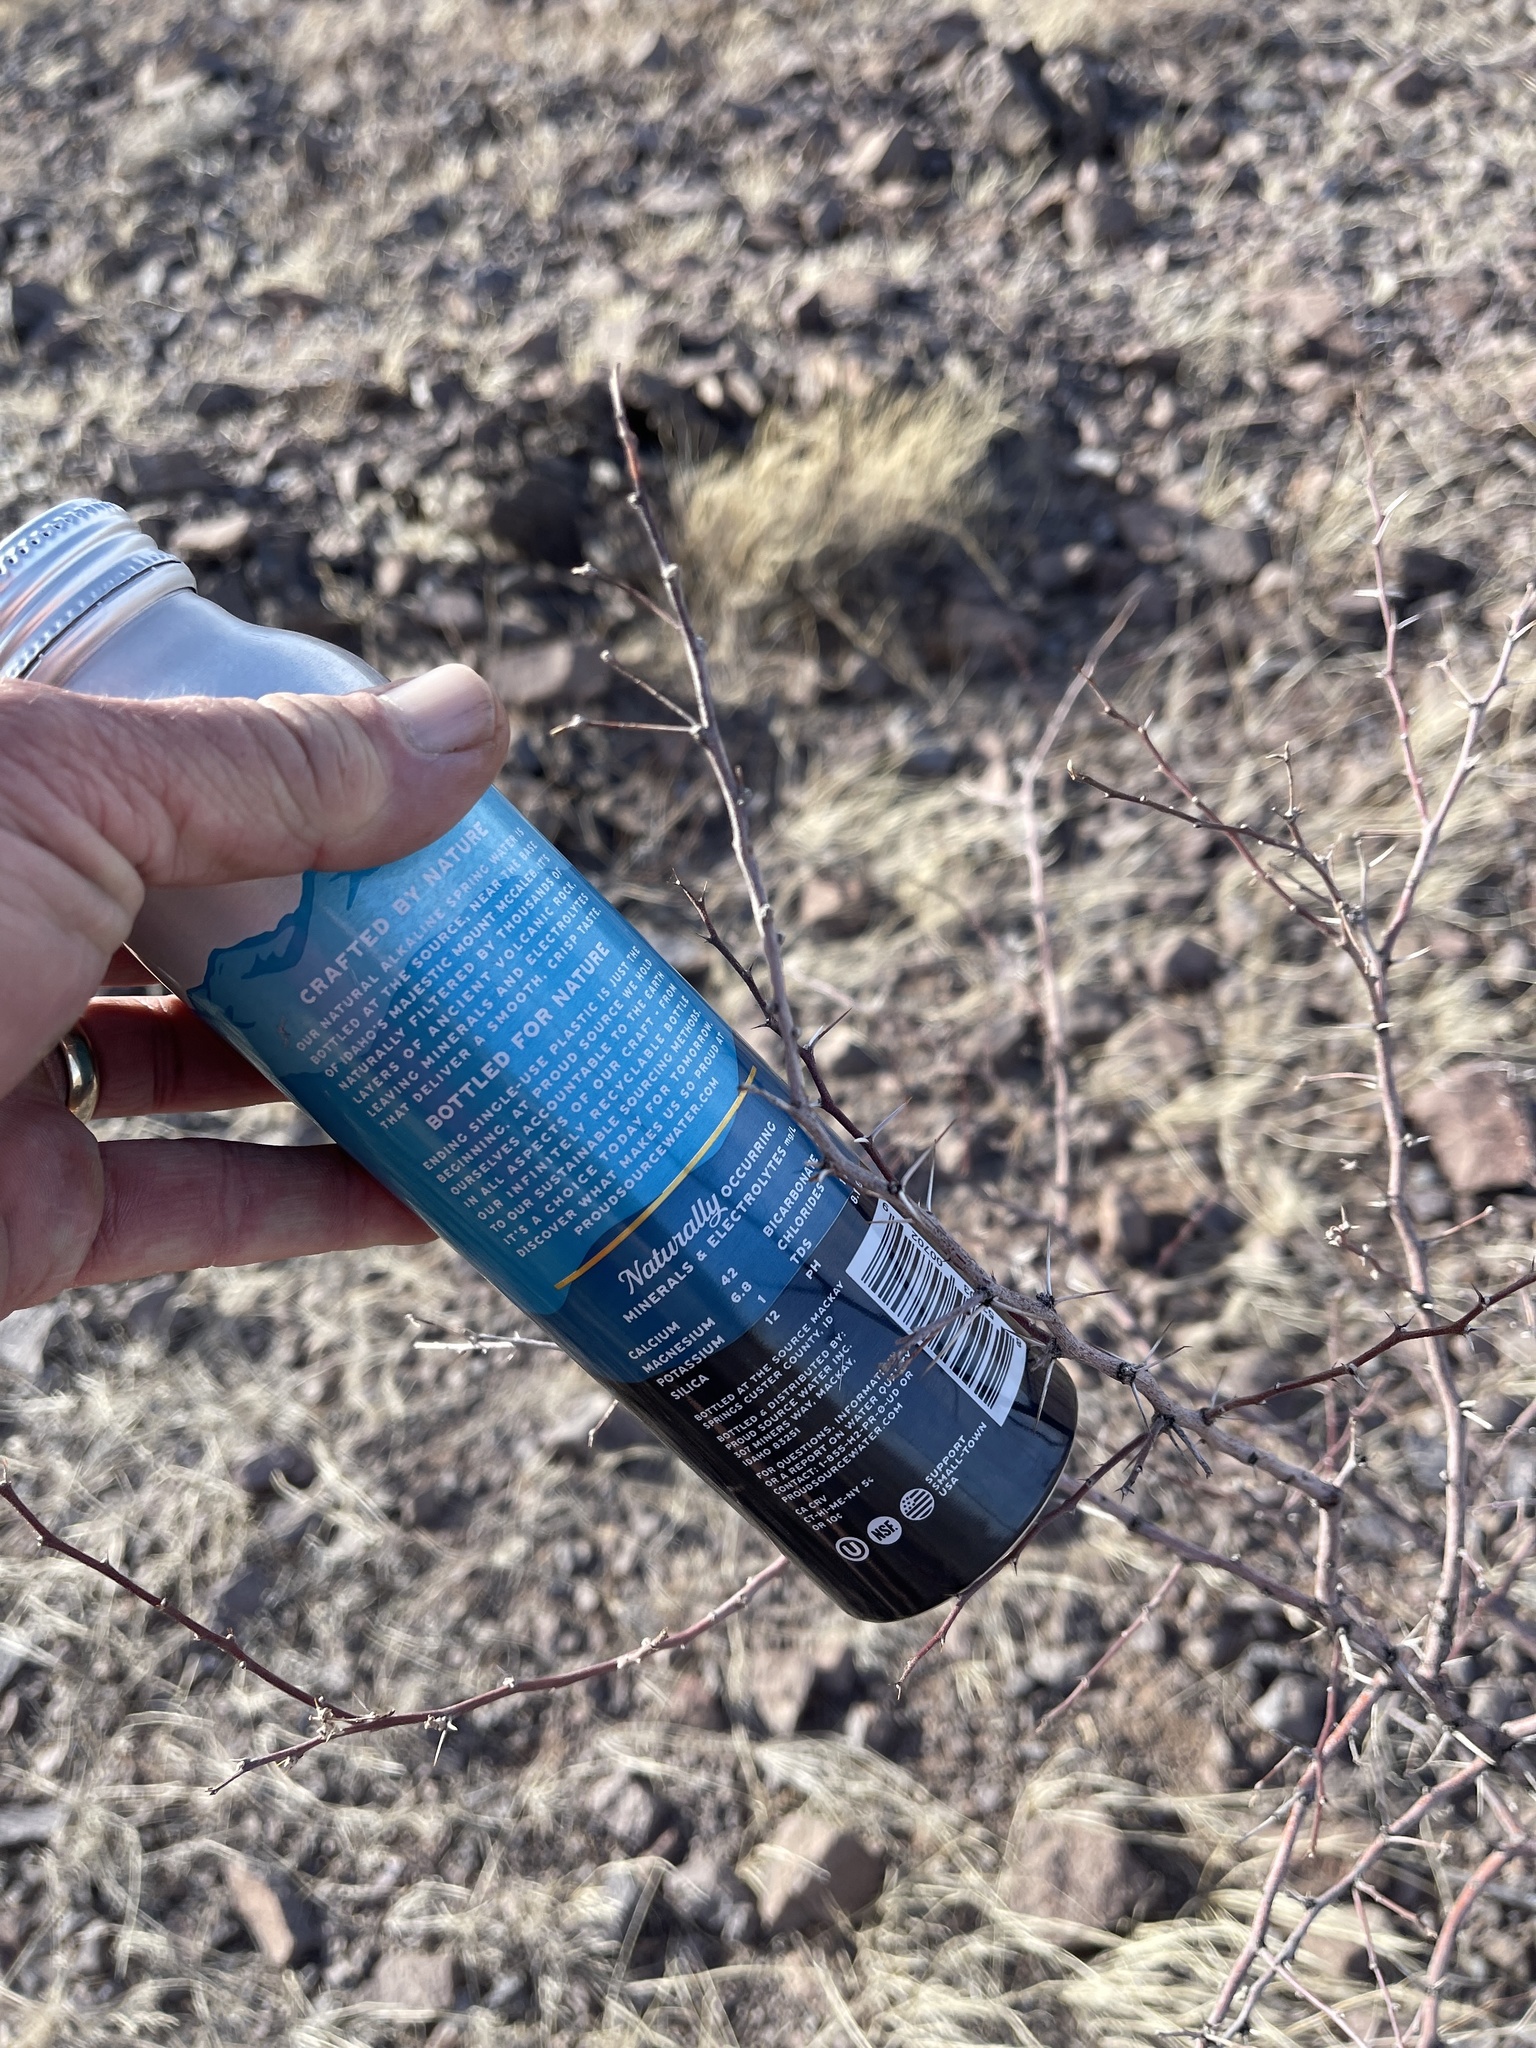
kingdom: Plantae
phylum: Tracheophyta
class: Magnoliopsida
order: Fabales
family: Fabaceae
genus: Vachellia
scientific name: Vachellia constricta
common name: Mescat acacia
